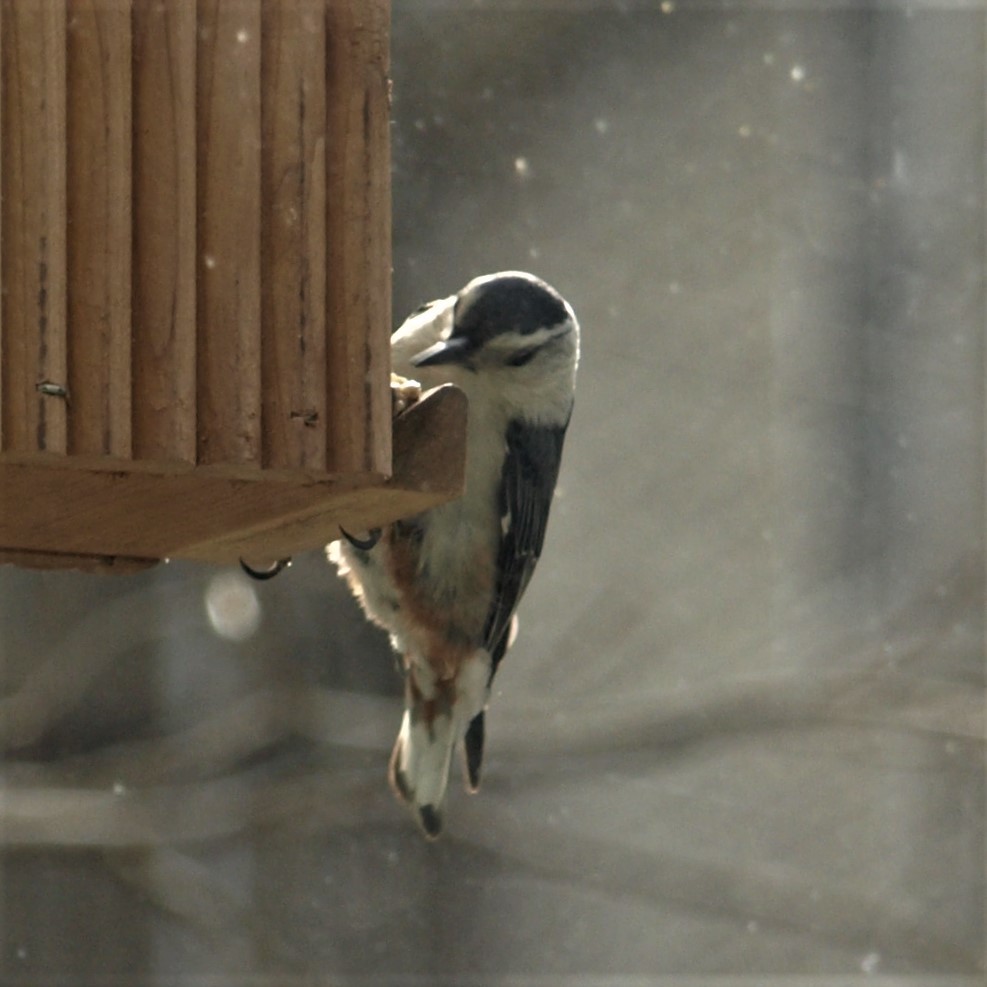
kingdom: Animalia
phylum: Chordata
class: Aves
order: Passeriformes
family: Sittidae
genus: Sitta
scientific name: Sitta carolinensis
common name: White-breasted nuthatch
